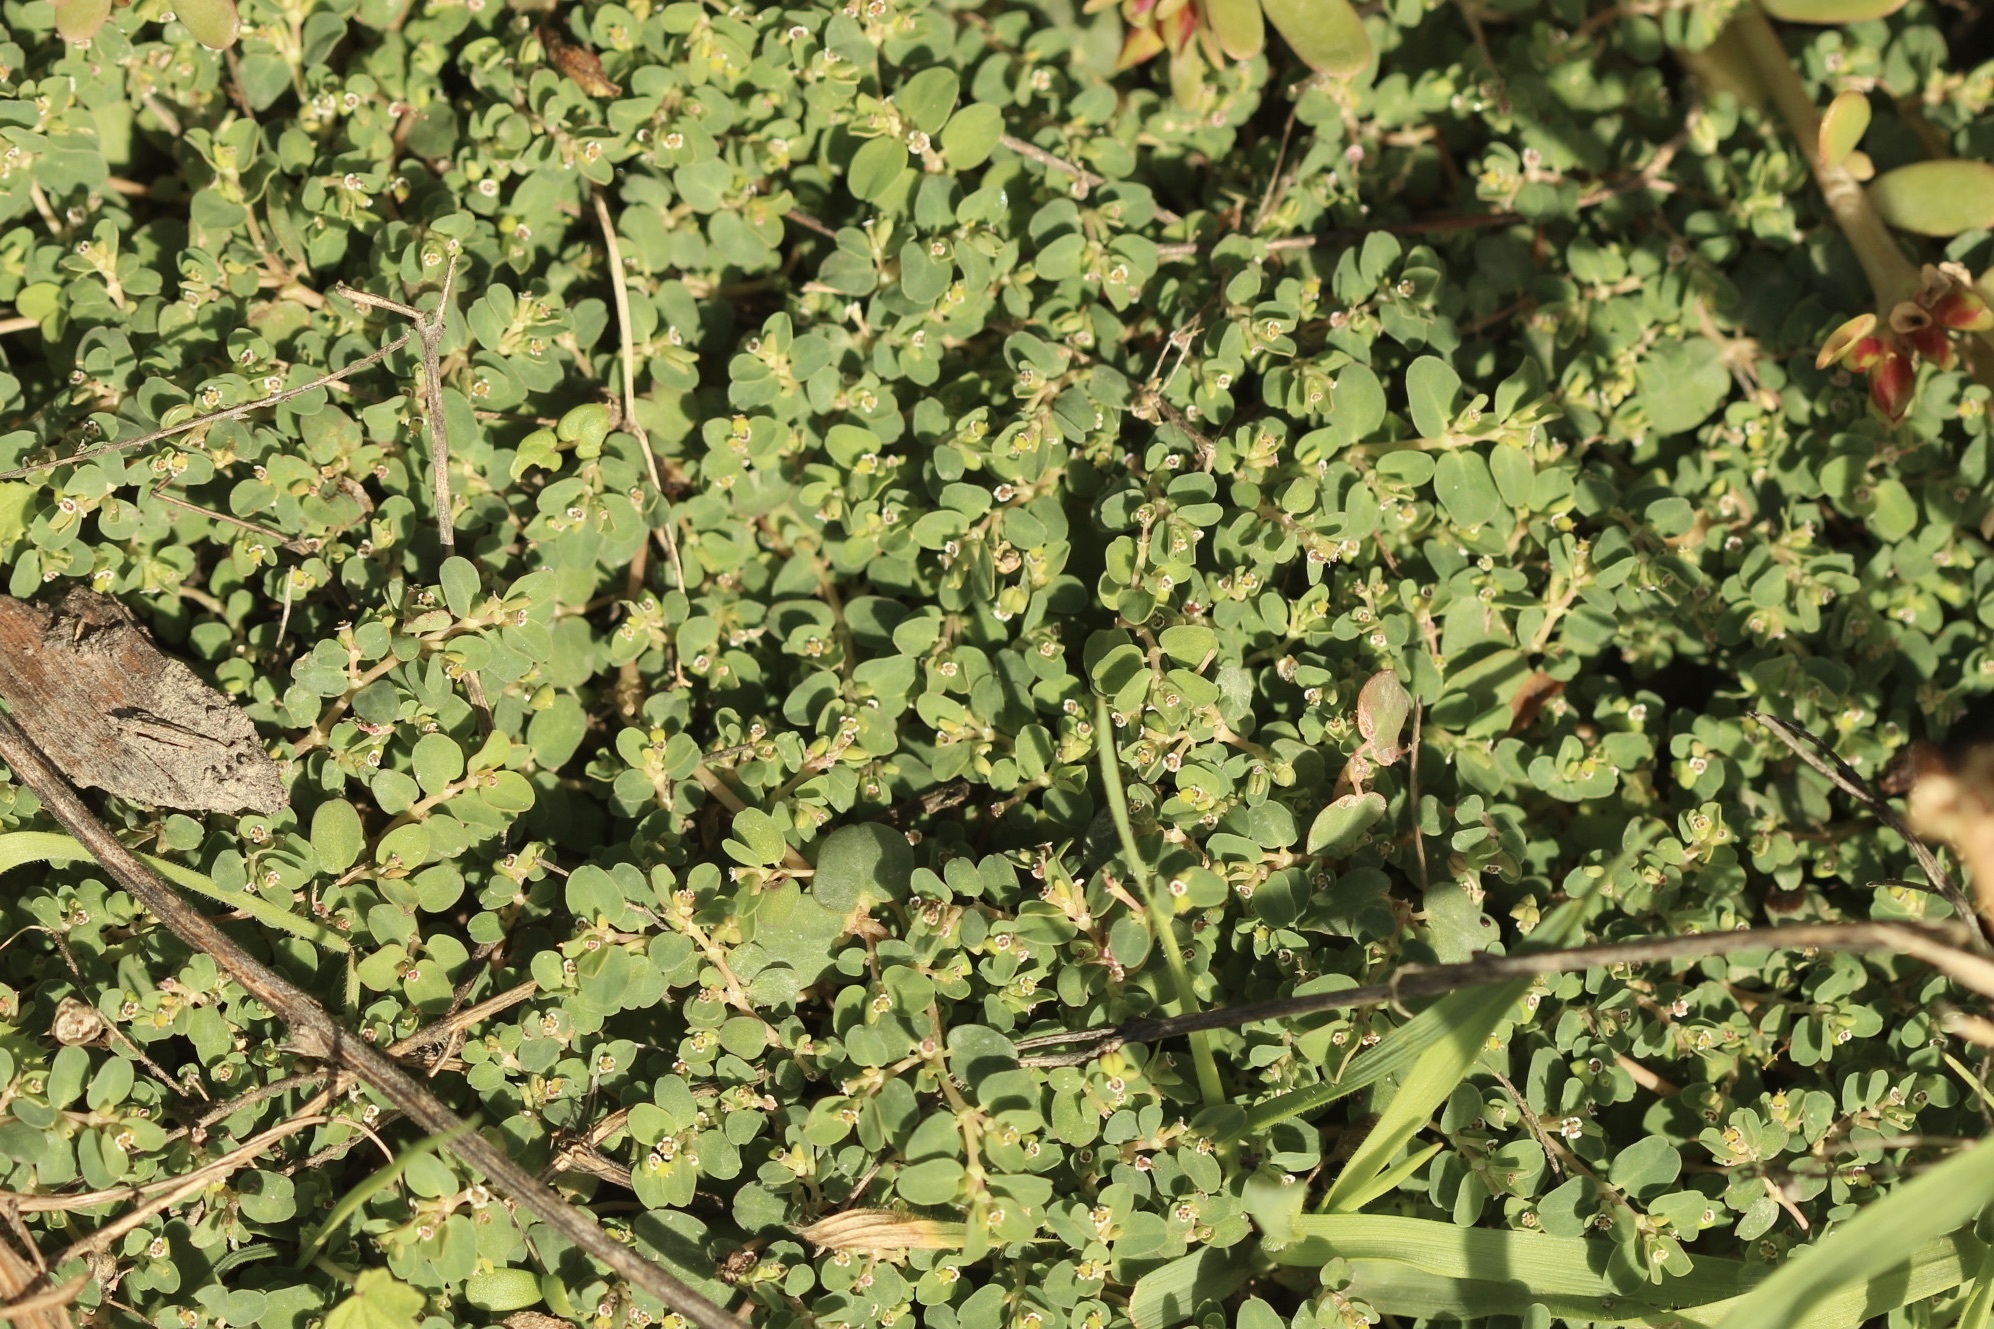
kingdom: Plantae
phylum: Tracheophyta
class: Magnoliopsida
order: Malpighiales
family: Euphorbiaceae
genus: Euphorbia
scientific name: Euphorbia serpens
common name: Matted sandmat
